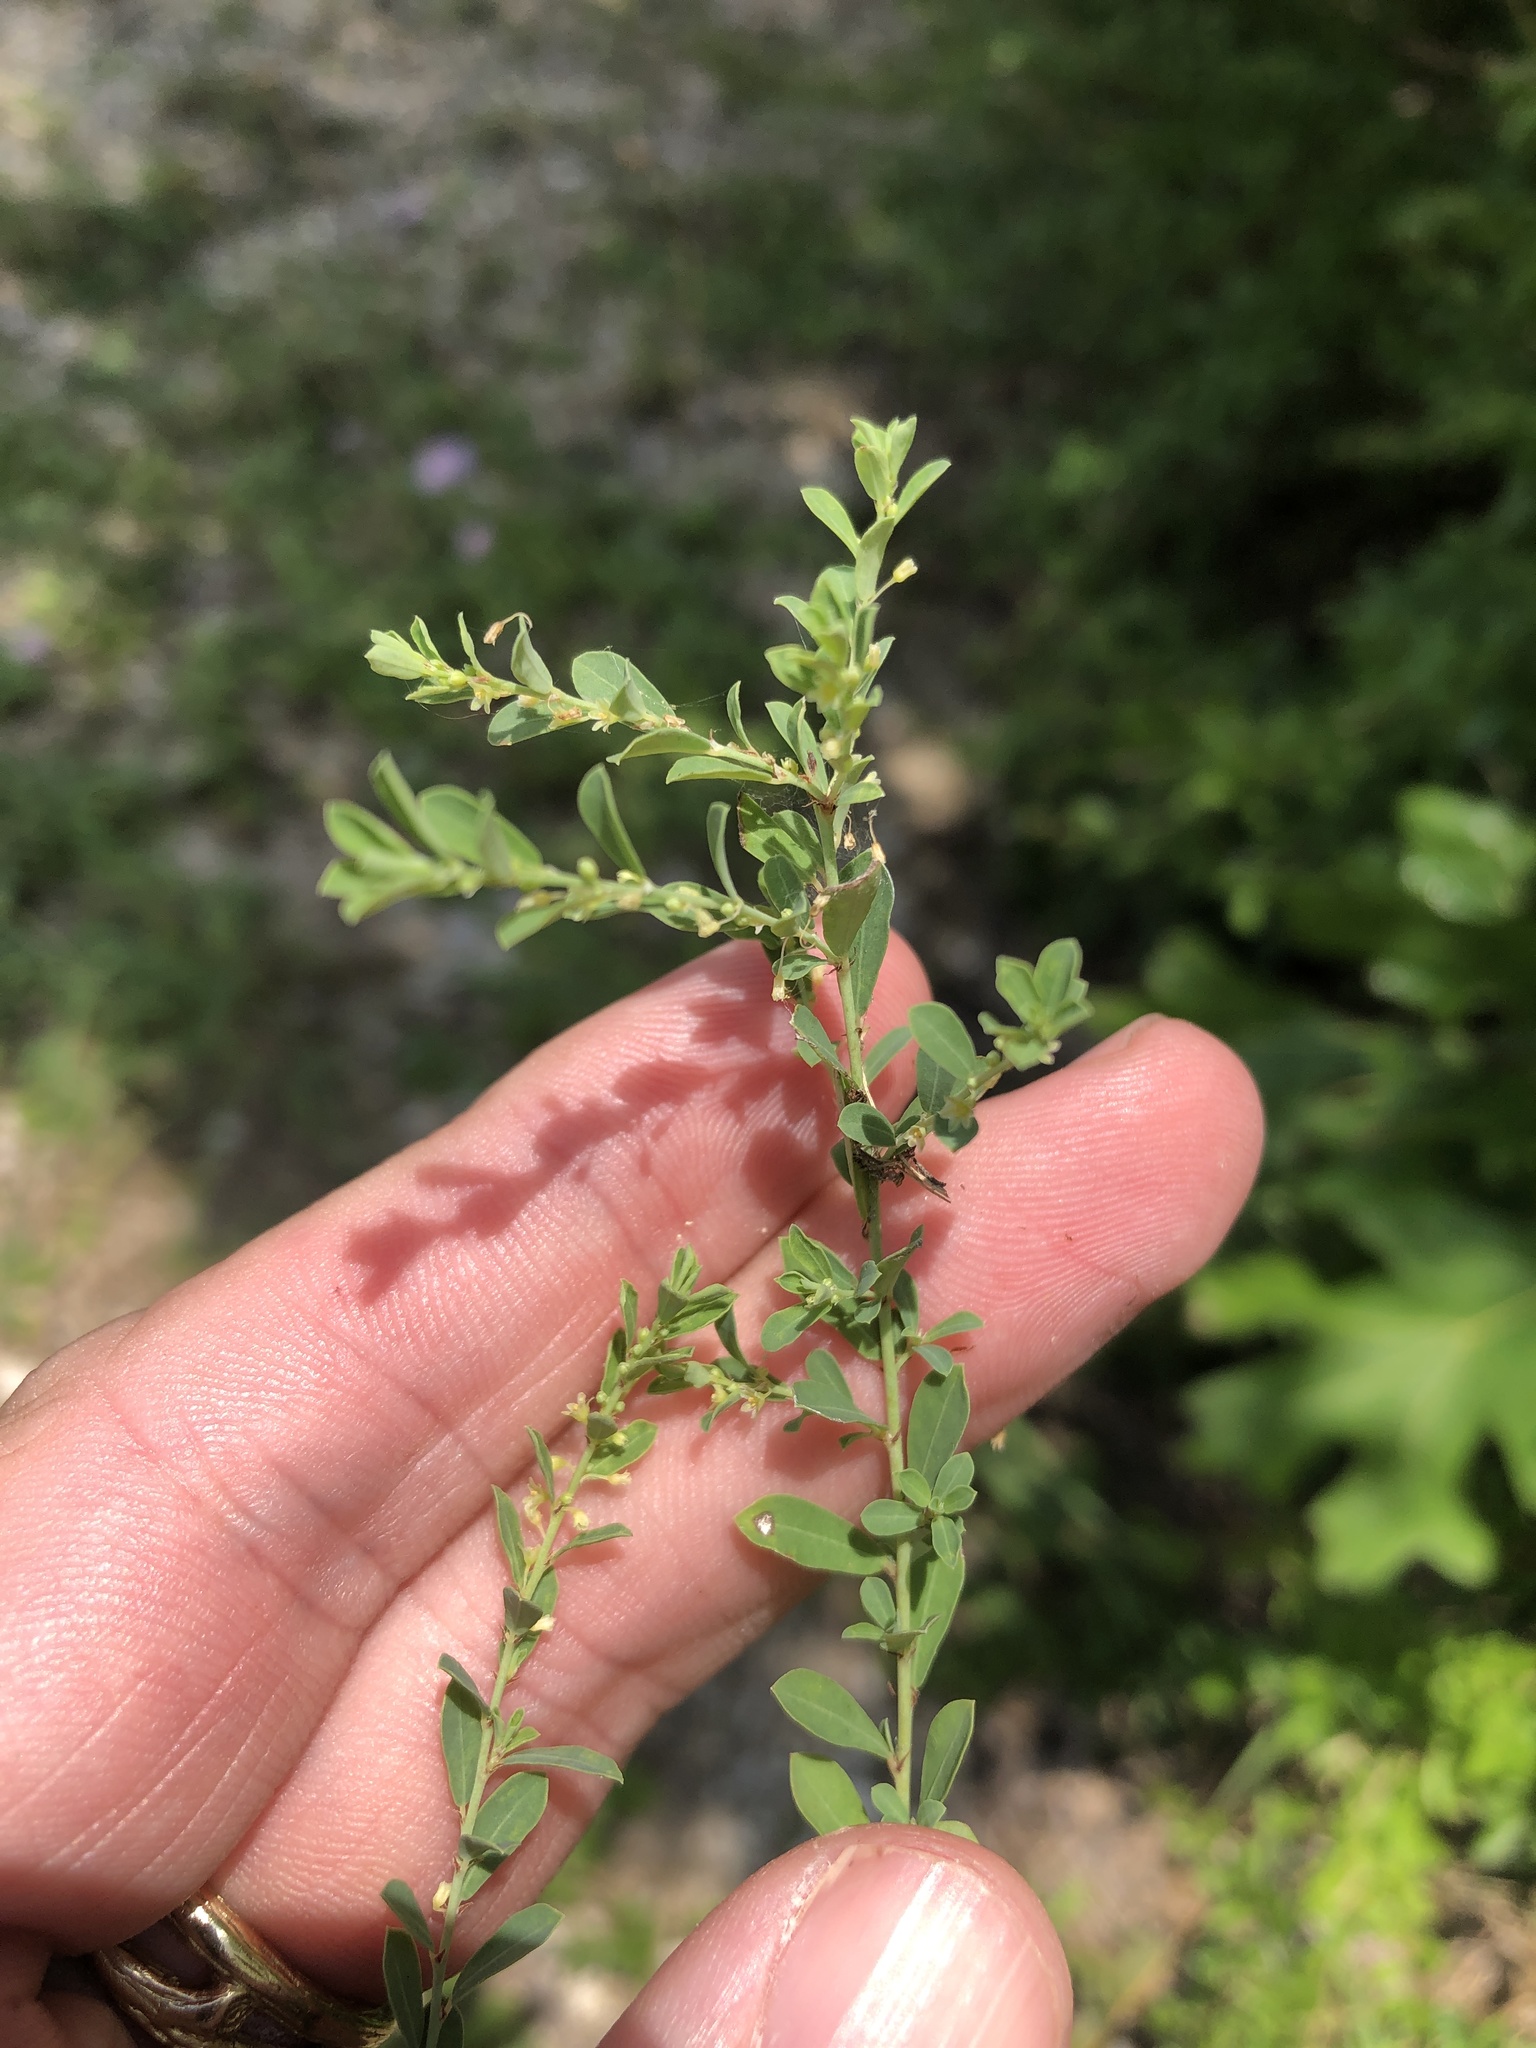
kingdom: Plantae
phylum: Tracheophyta
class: Magnoliopsida
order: Malpighiales
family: Phyllanthaceae
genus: Phyllanthus
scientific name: Phyllanthus polygonoides
